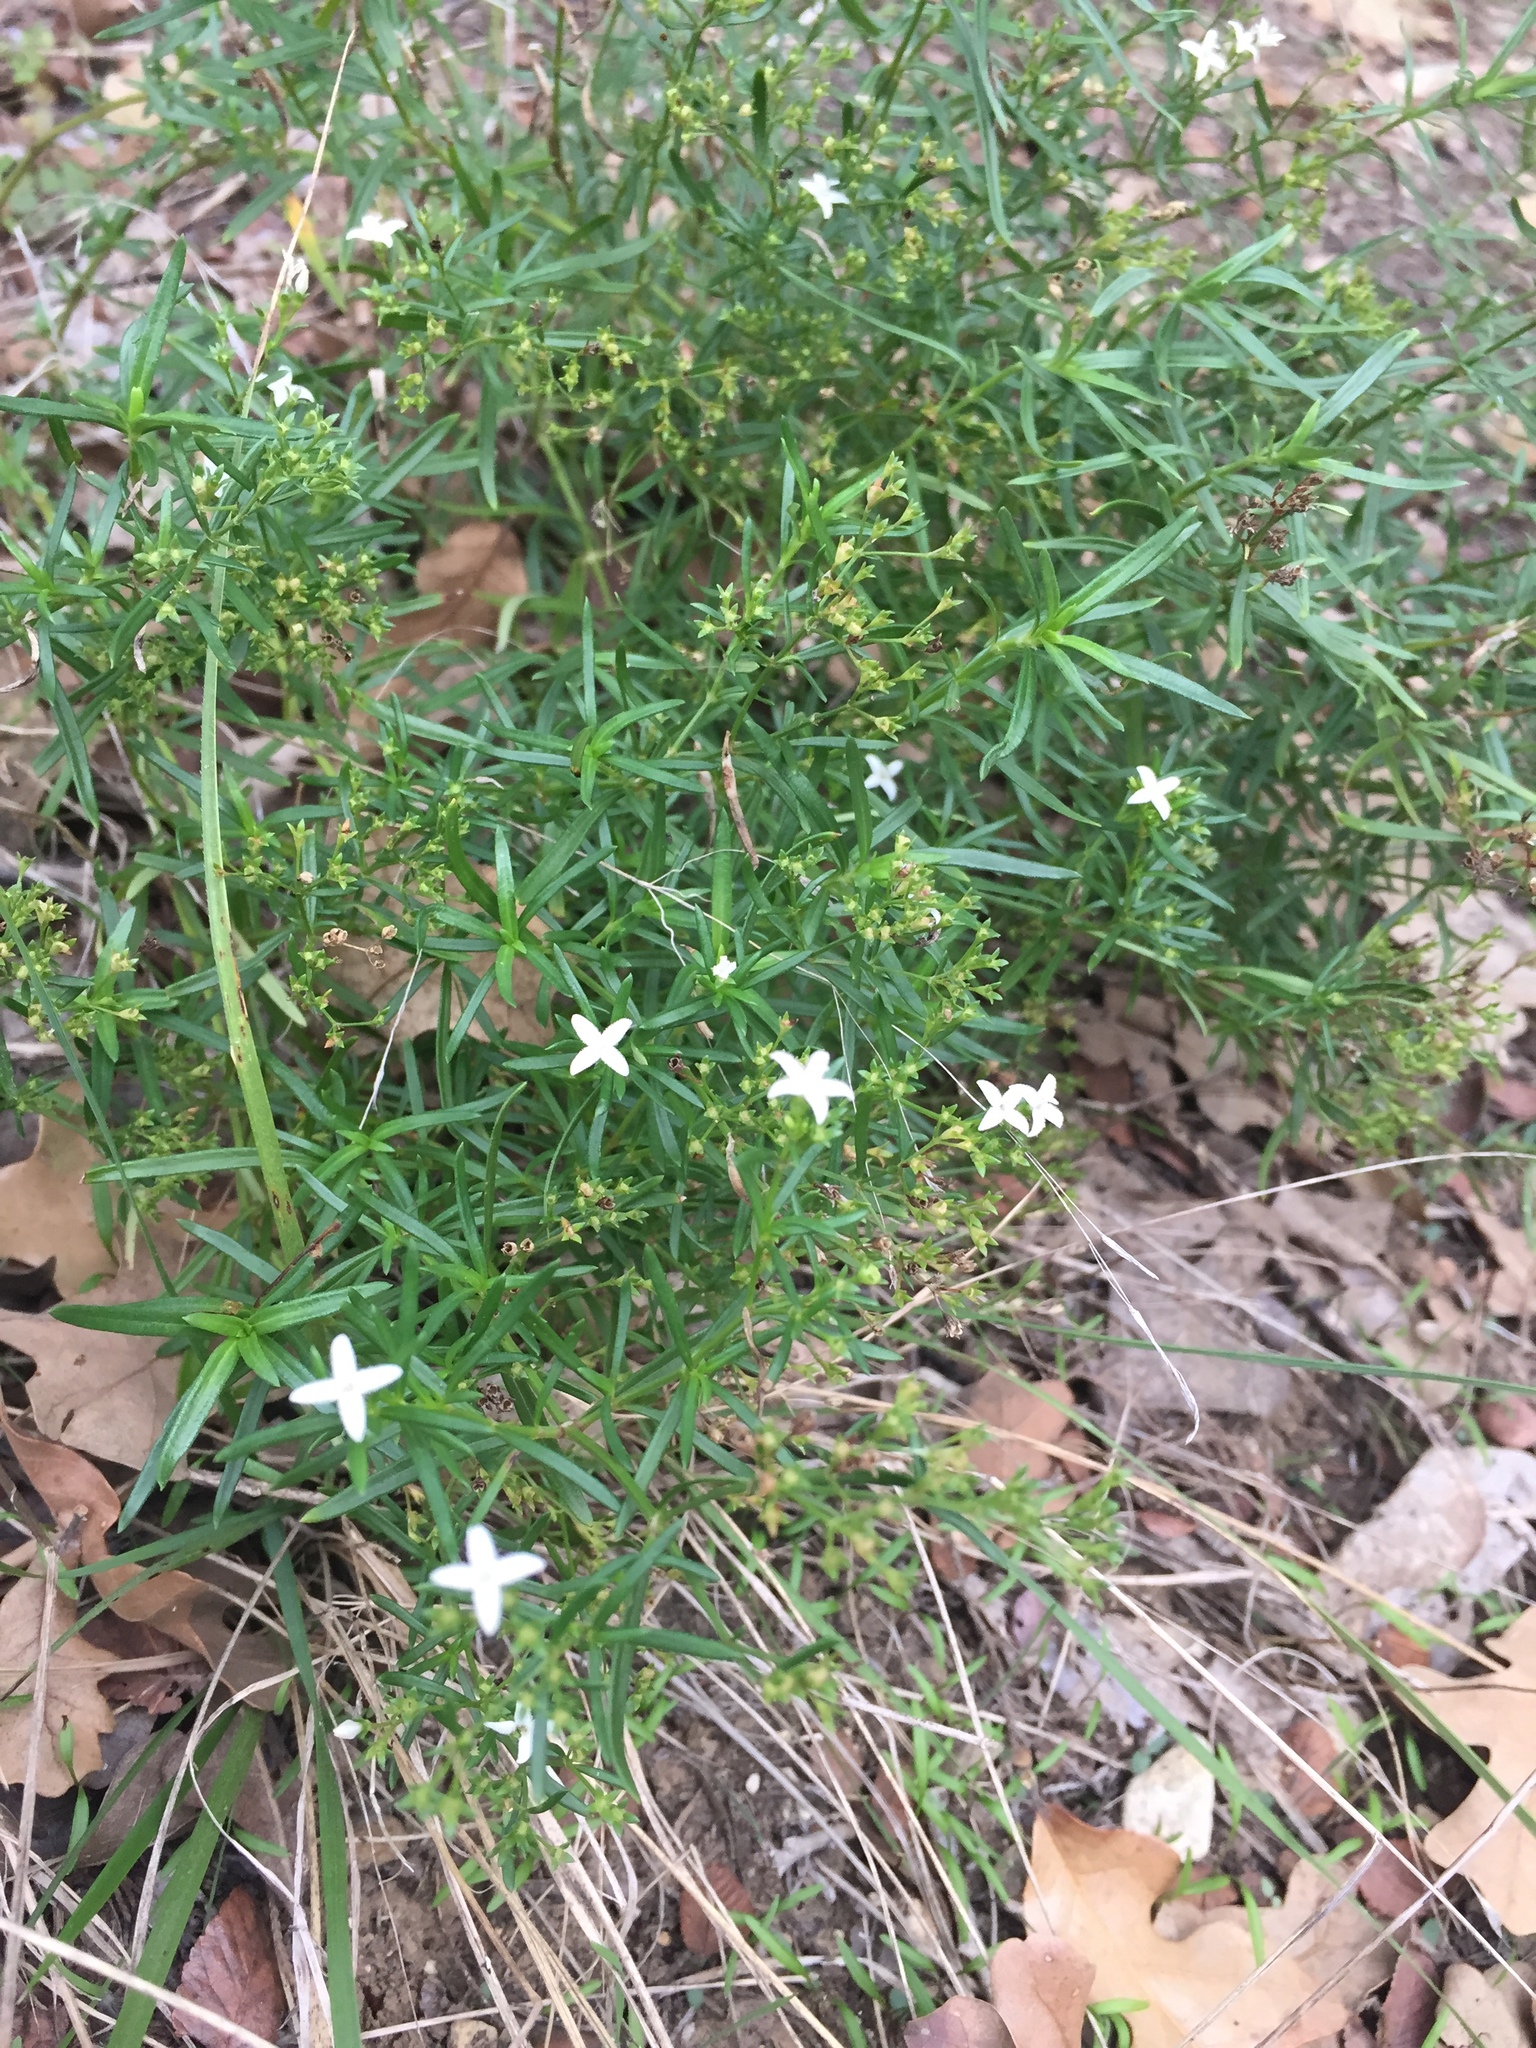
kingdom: Plantae
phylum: Tracheophyta
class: Magnoliopsida
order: Gentianales
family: Rubiaceae
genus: Stenaria
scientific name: Stenaria nigricans
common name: Diamondflowers
